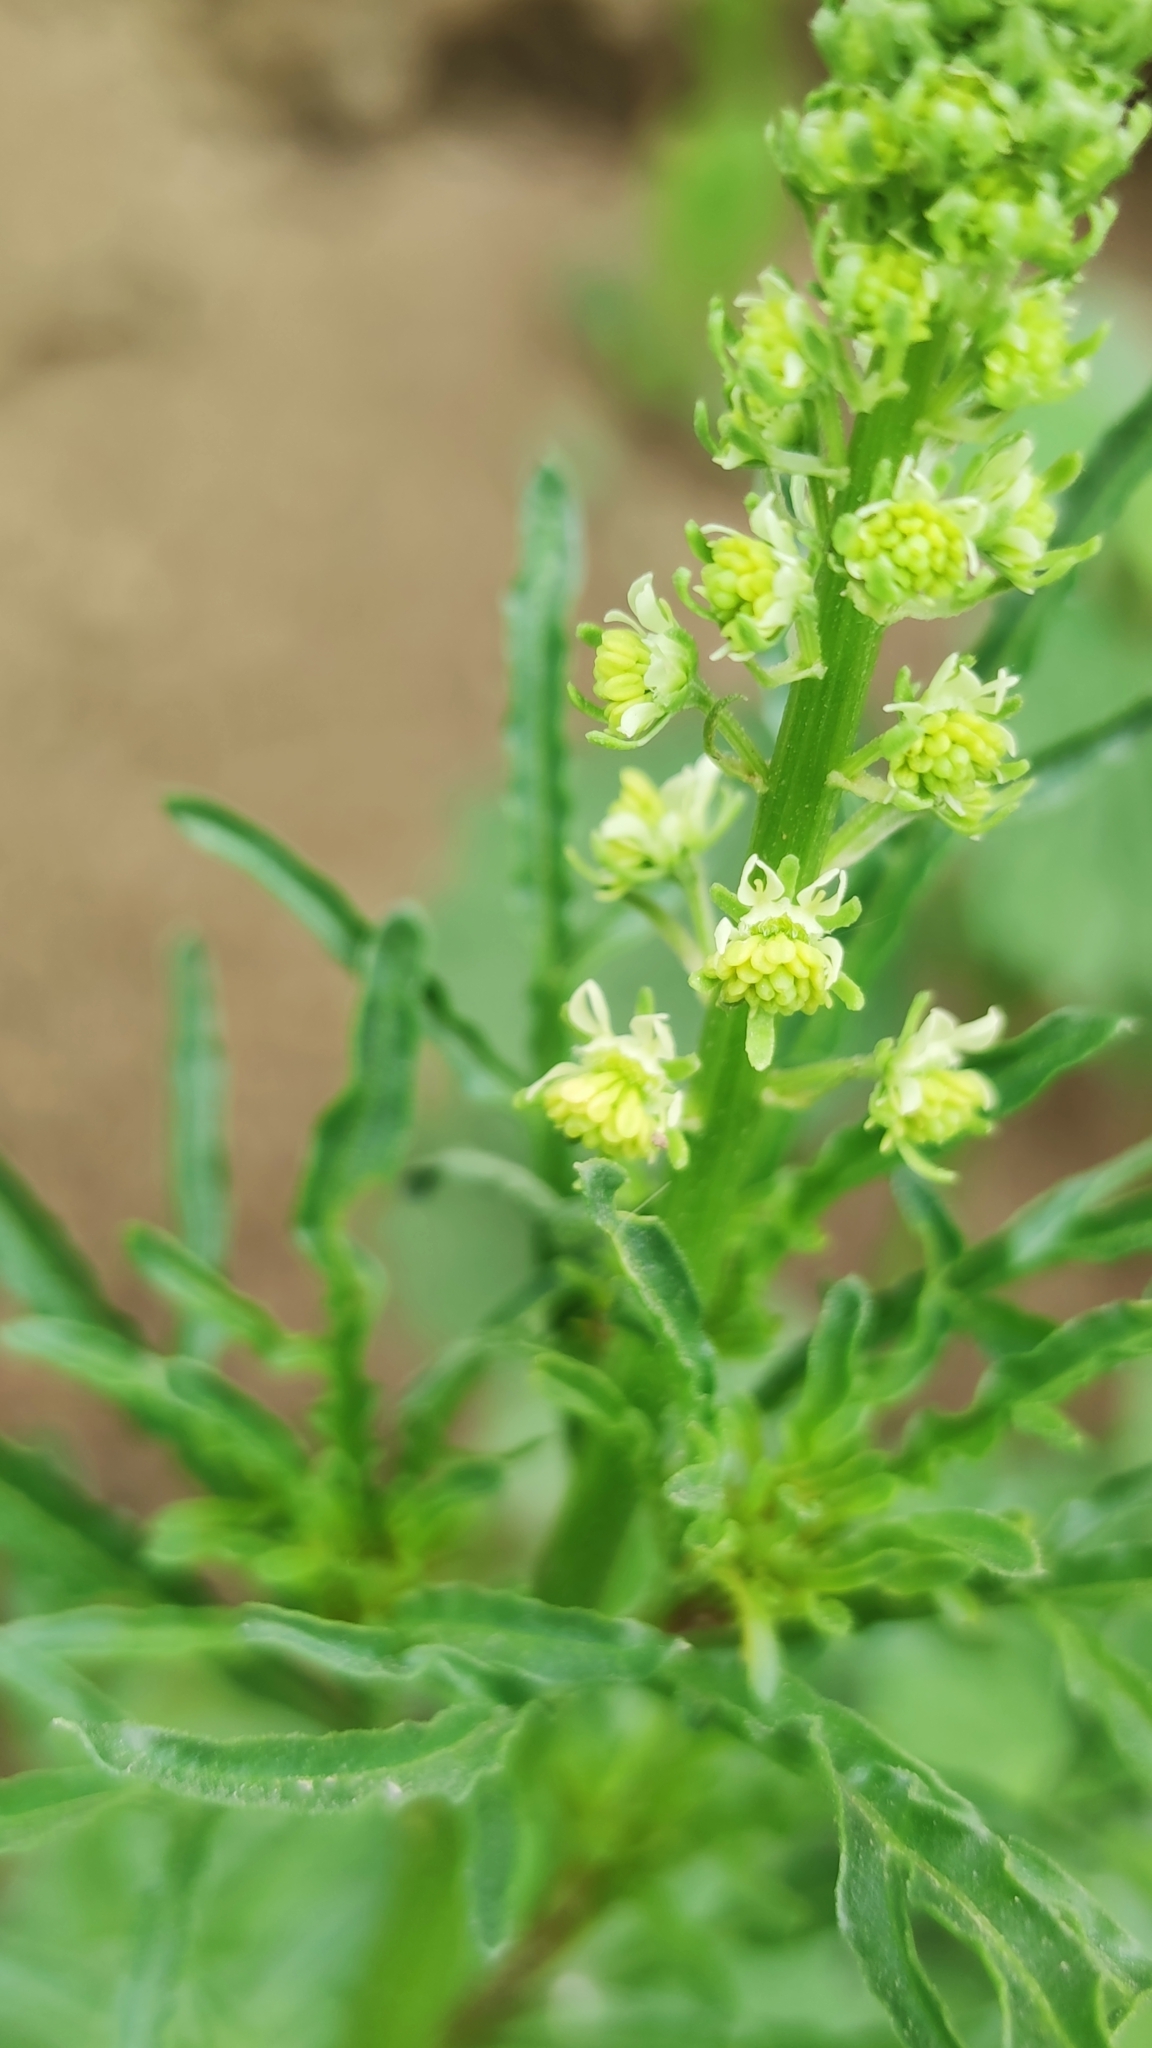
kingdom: Plantae
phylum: Tracheophyta
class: Magnoliopsida
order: Brassicales
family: Resedaceae
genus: Reseda
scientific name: Reseda lutea
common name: Wild mignonette
